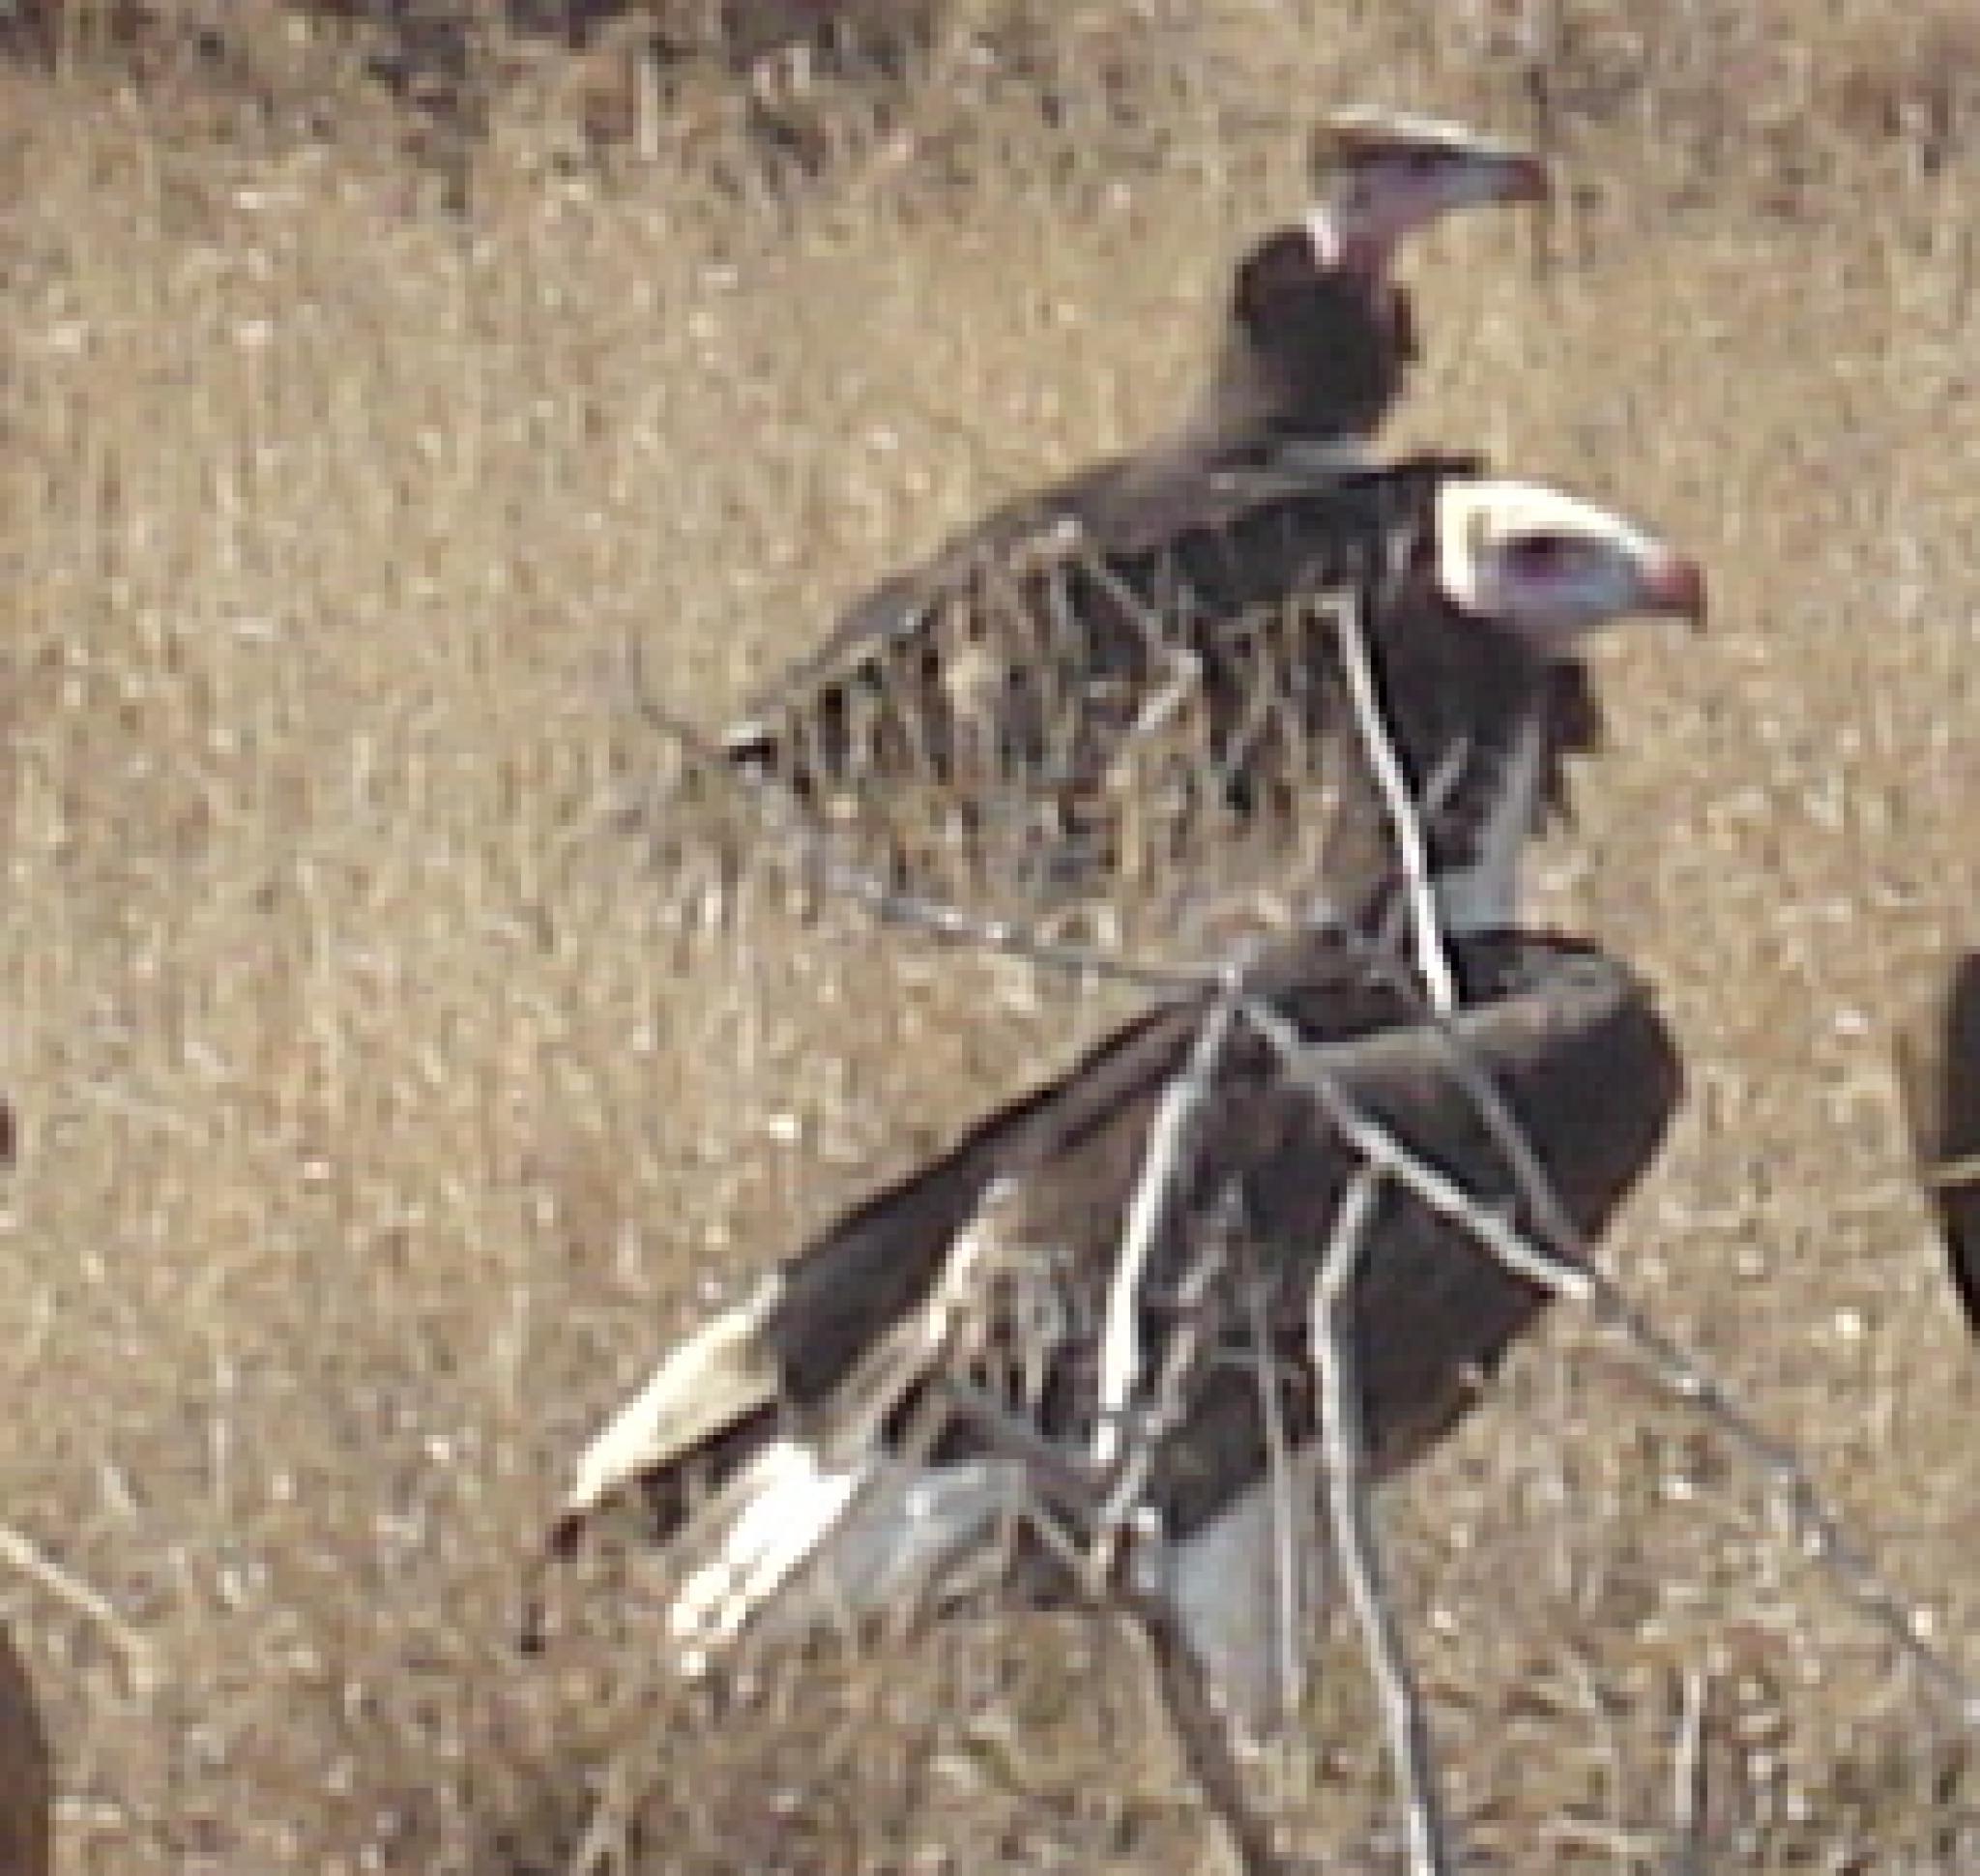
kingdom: Animalia
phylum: Chordata
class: Aves
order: Accipitriformes
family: Accipitridae
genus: Trigonoceps
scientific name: Trigonoceps occipitalis
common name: White-headed vulture
